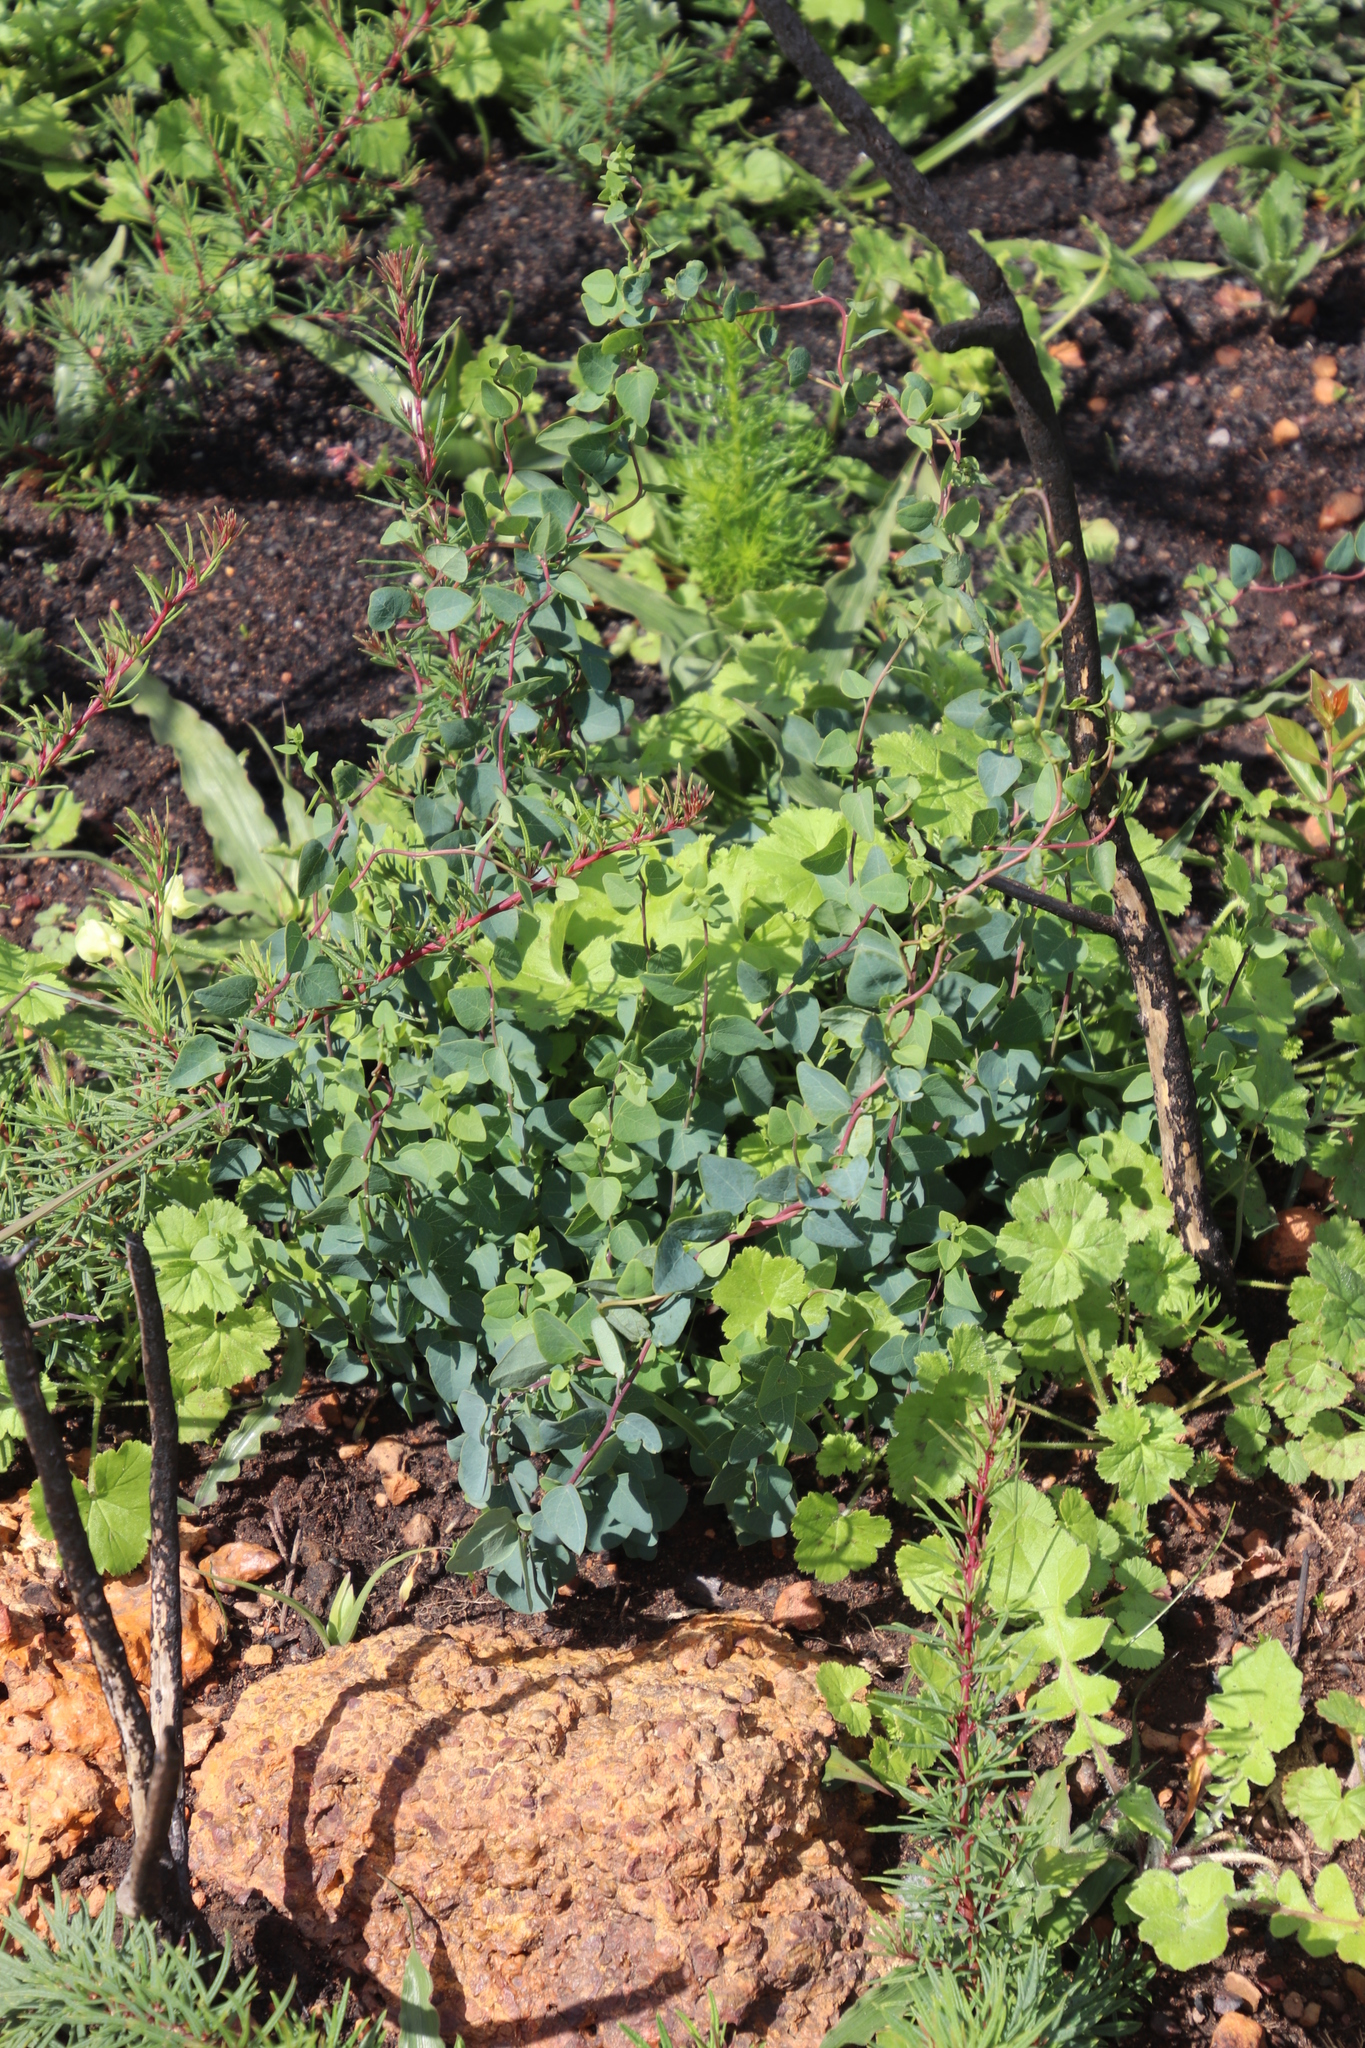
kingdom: Plantae
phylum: Tracheophyta
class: Magnoliopsida
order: Ranunculales
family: Menispermaceae
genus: Cissampelos
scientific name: Cissampelos capensis
